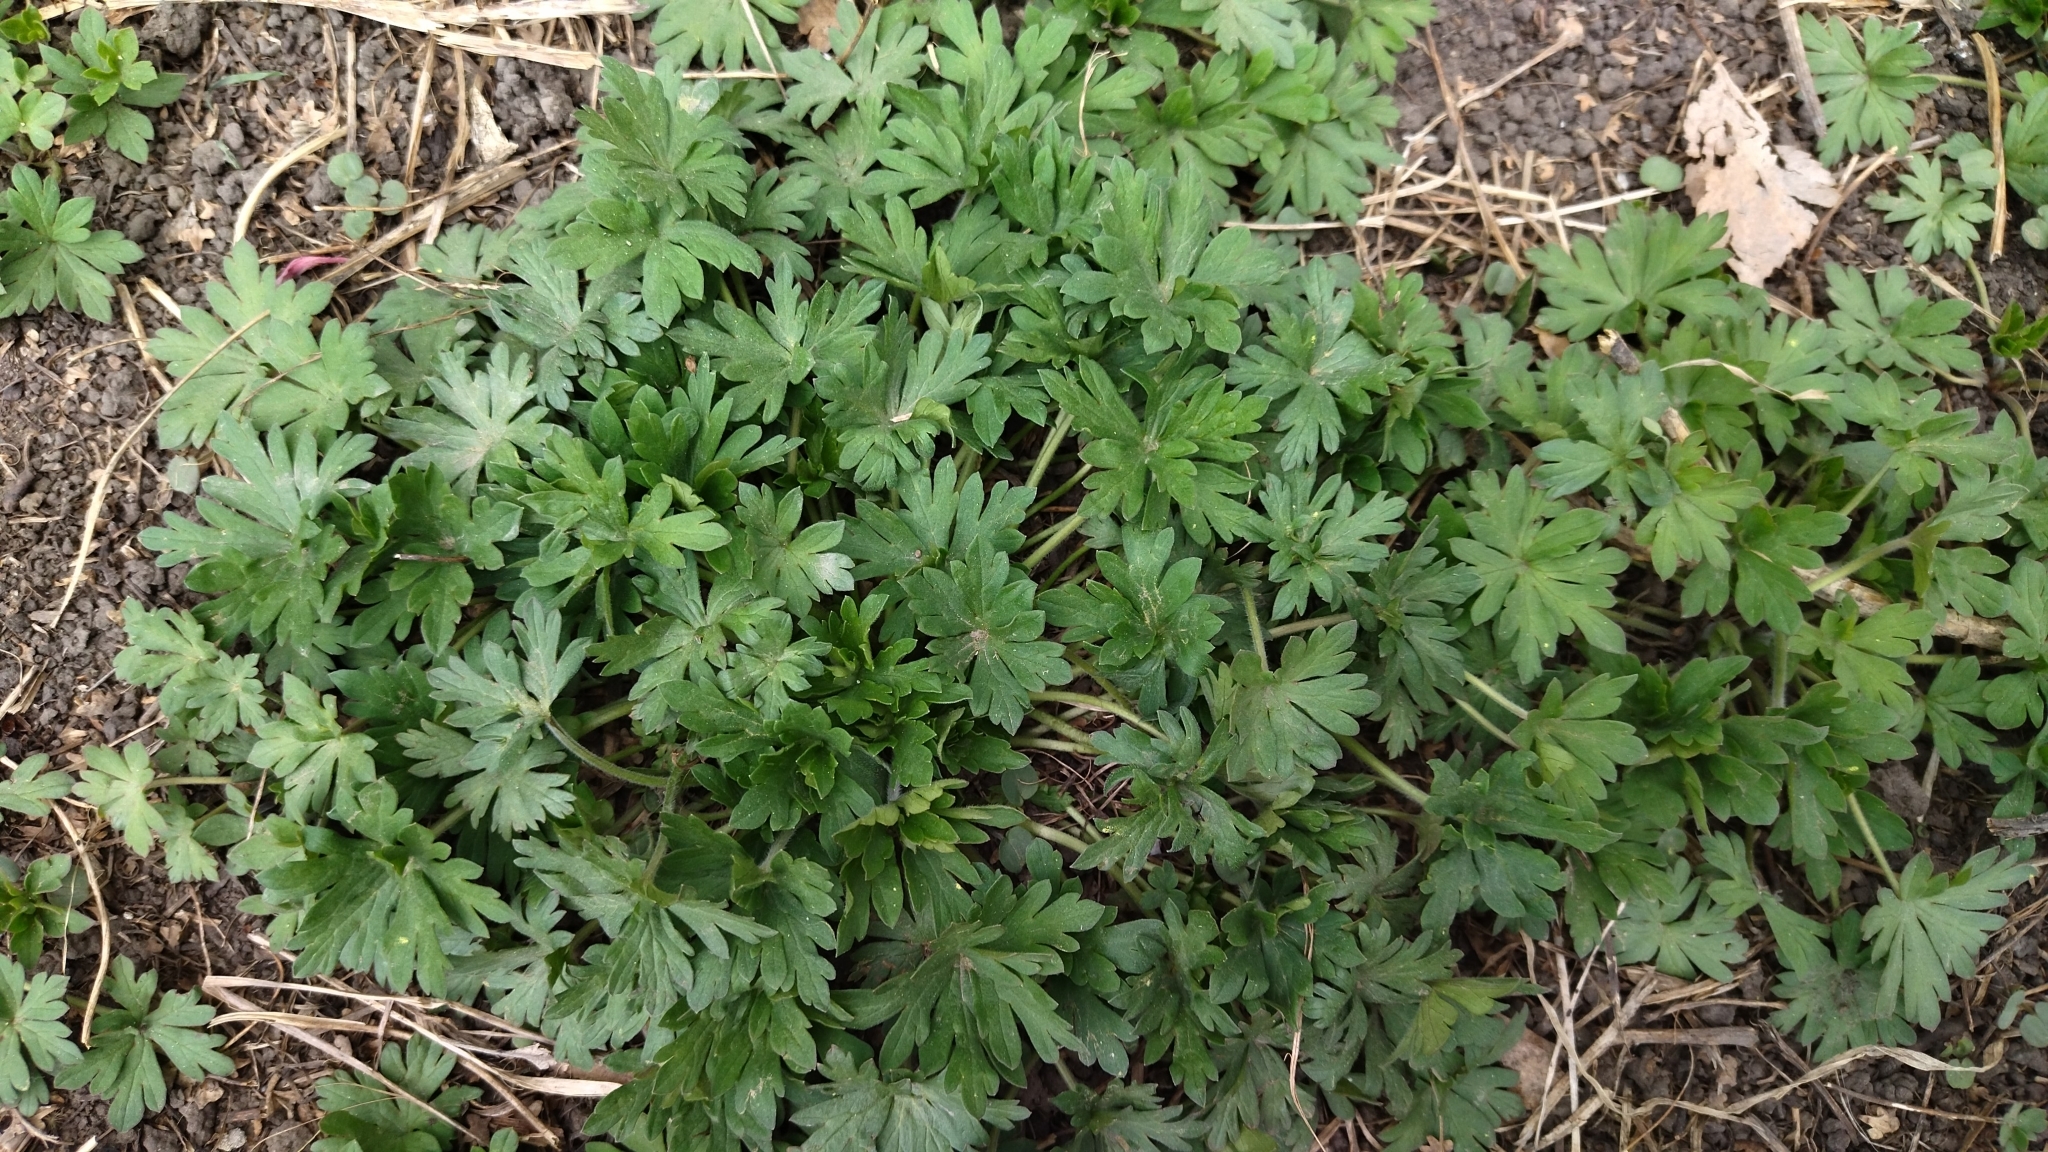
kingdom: Plantae
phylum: Tracheophyta
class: Magnoliopsida
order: Geraniales
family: Geraniaceae
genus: Geranium
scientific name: Geranium sibiricum
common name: Siberian crane's-bill
